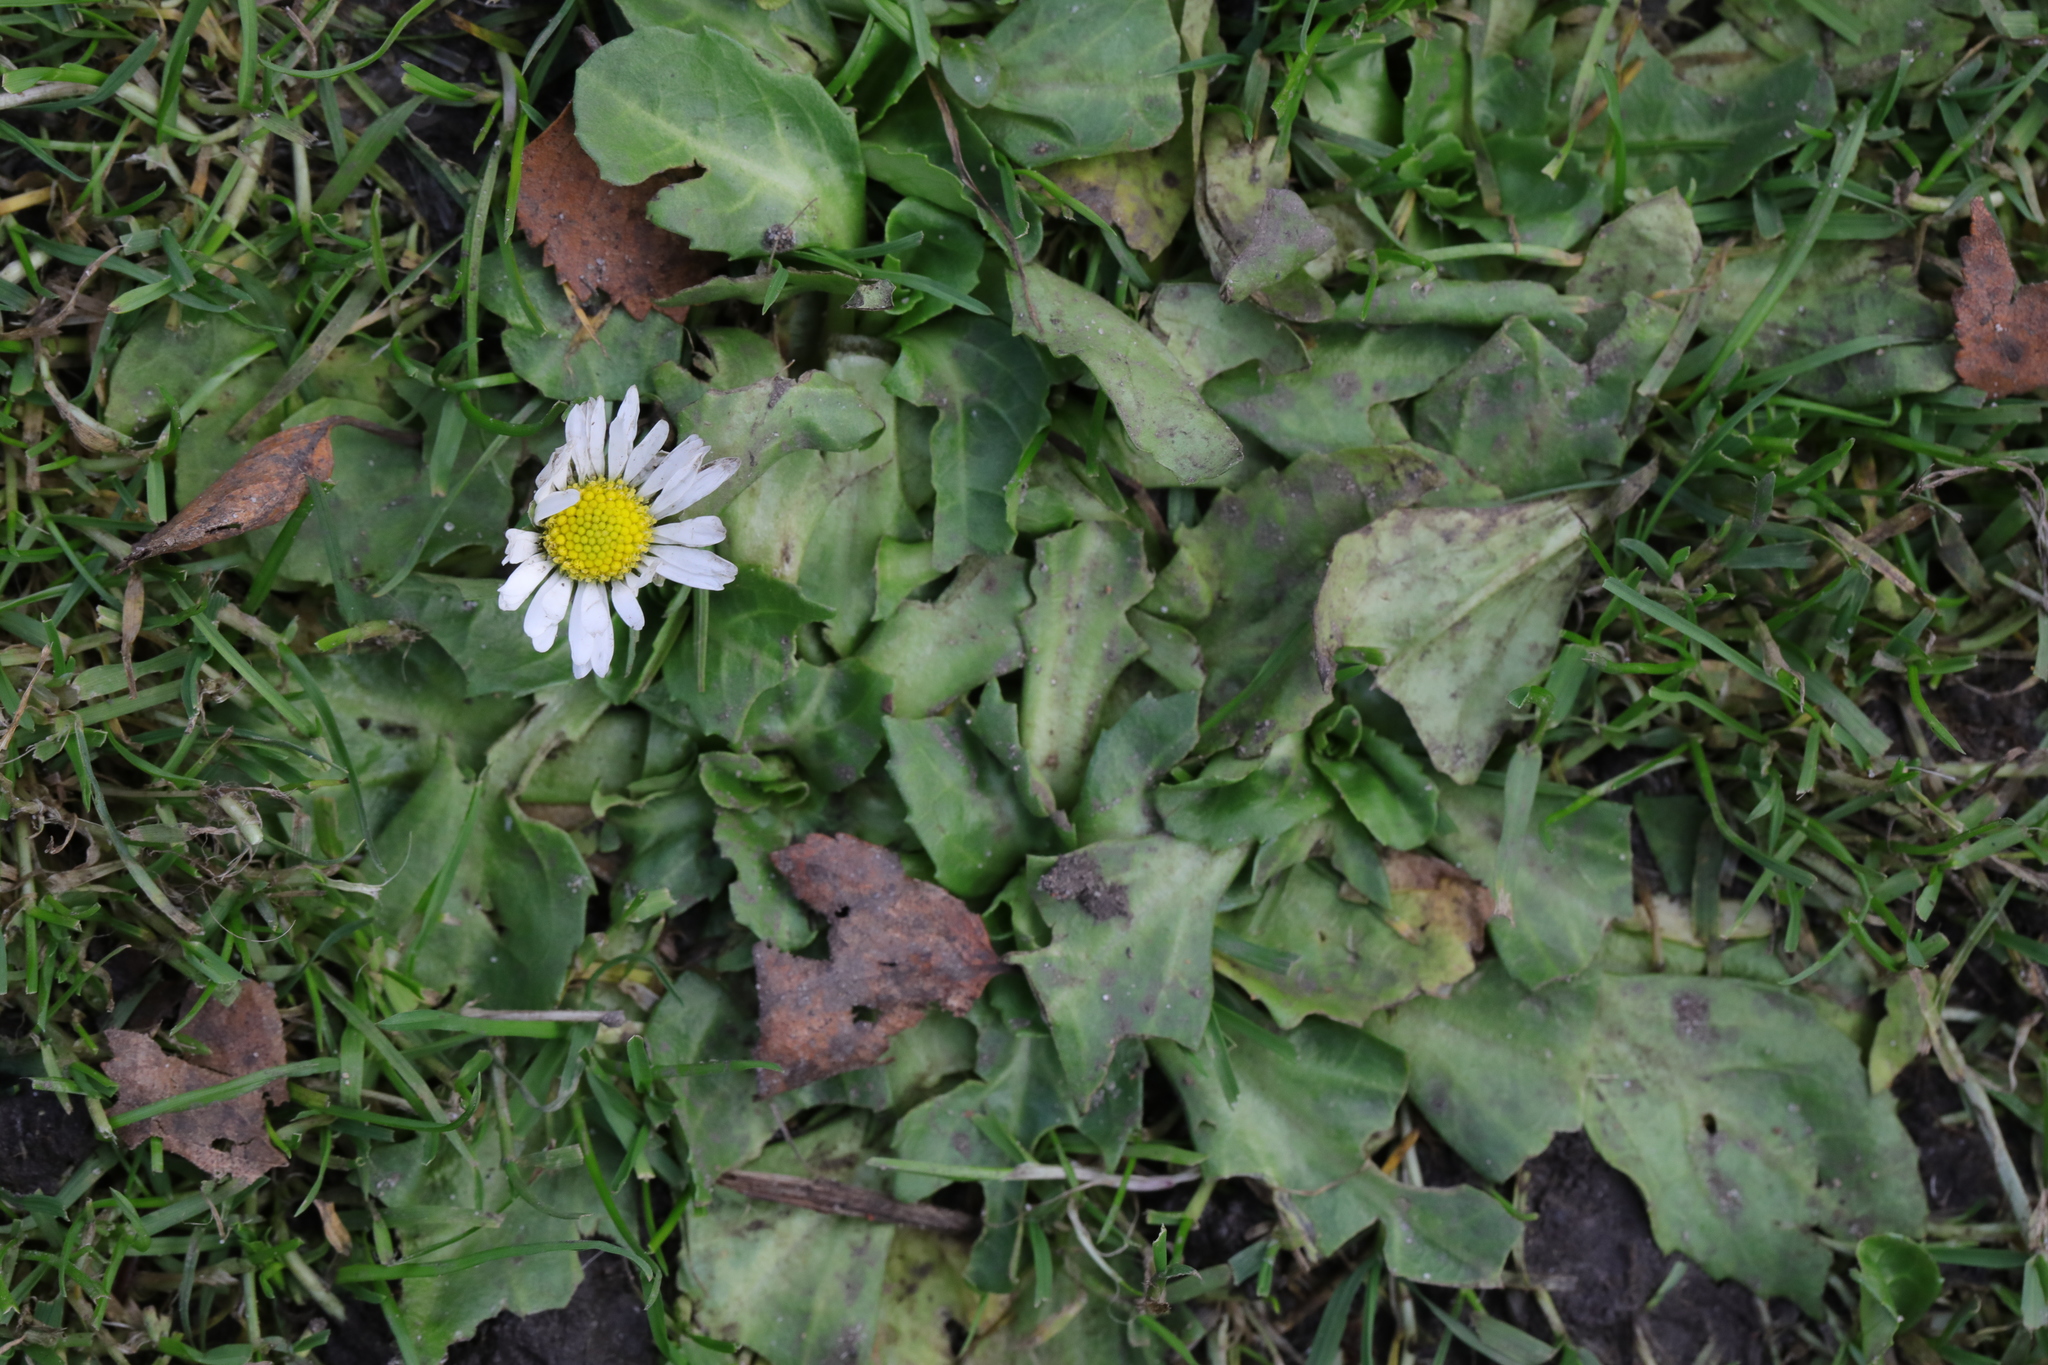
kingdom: Plantae
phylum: Tracheophyta
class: Magnoliopsida
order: Asterales
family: Asteraceae
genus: Bellis
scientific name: Bellis perennis
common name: Lawndaisy
